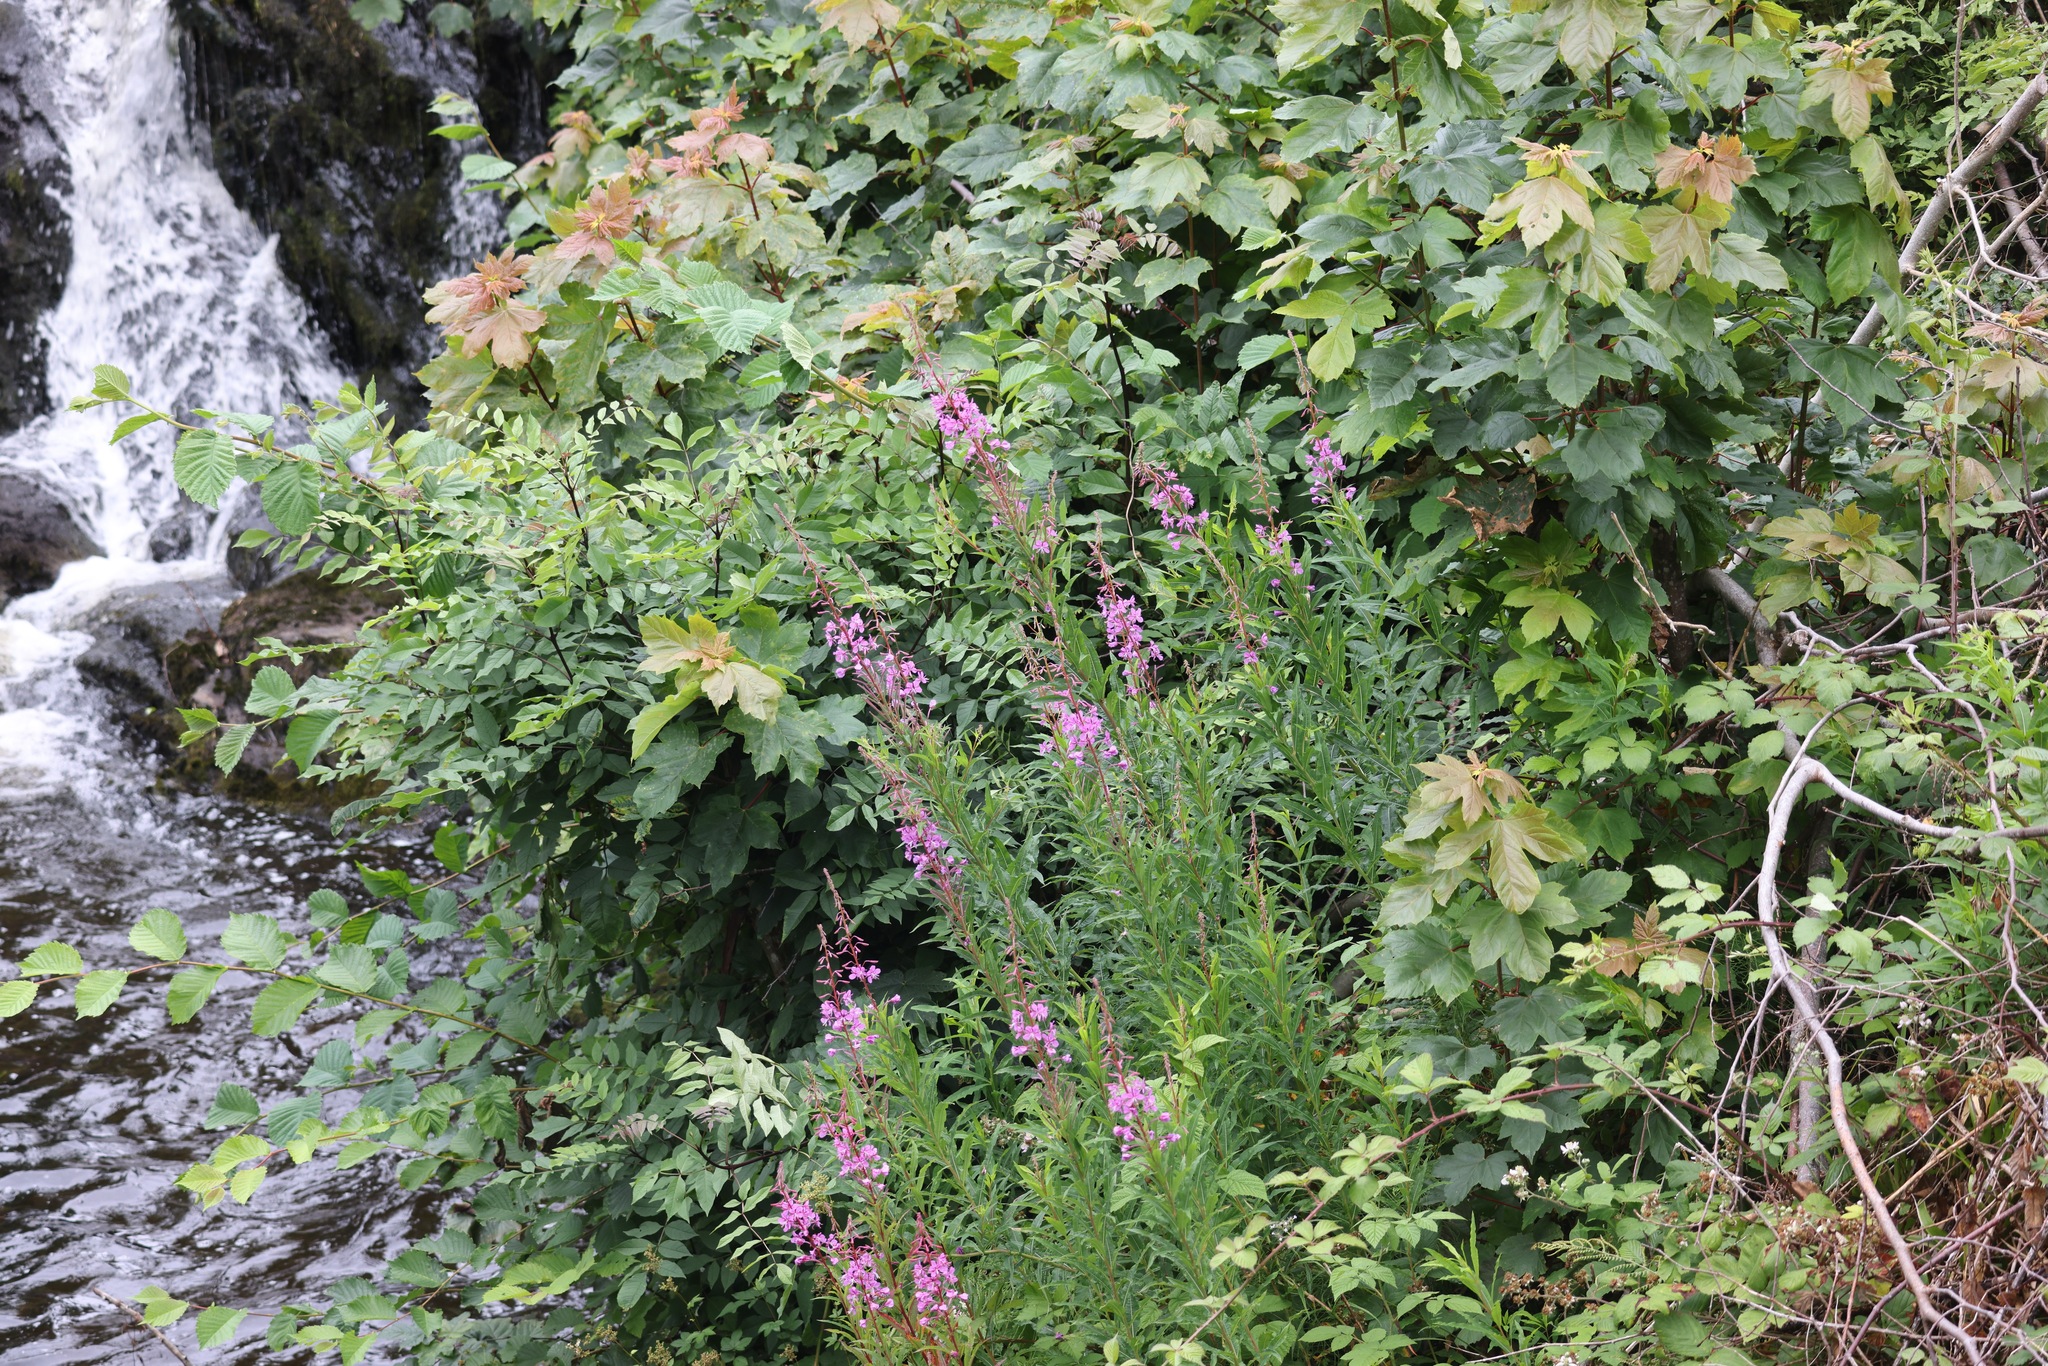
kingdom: Plantae
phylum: Tracheophyta
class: Magnoliopsida
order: Myrtales
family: Onagraceae
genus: Chamaenerion
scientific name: Chamaenerion angustifolium
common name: Fireweed
